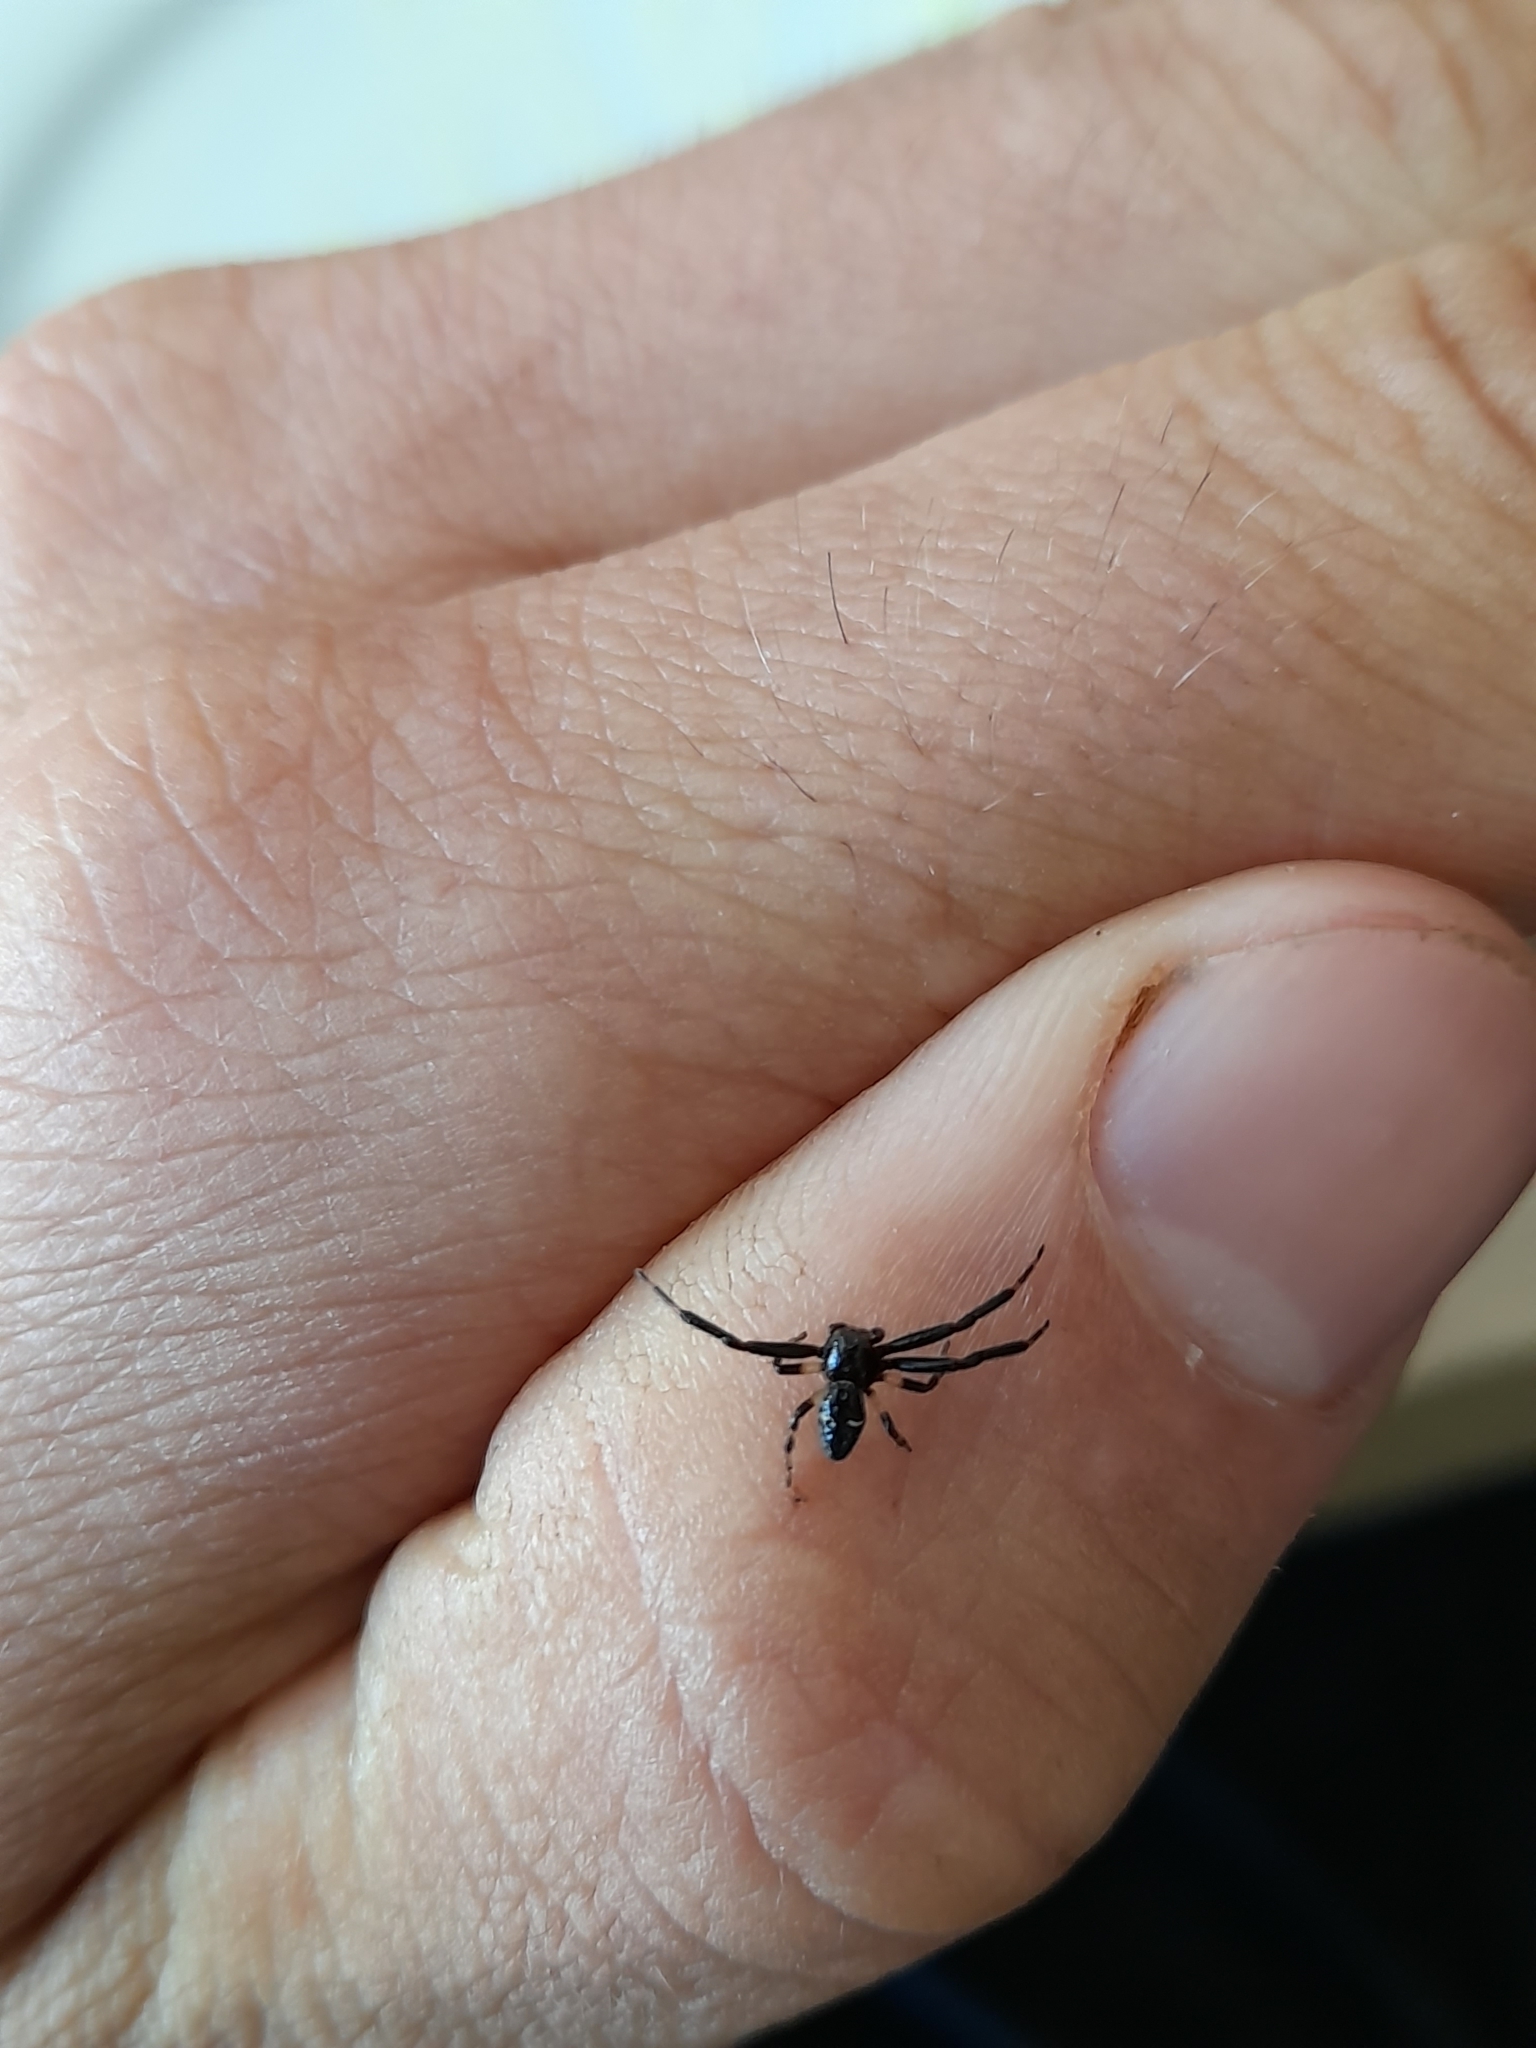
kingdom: Animalia
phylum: Arthropoda
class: Arachnida
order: Araneae
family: Thomisidae
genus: Synema
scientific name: Synema globosum
